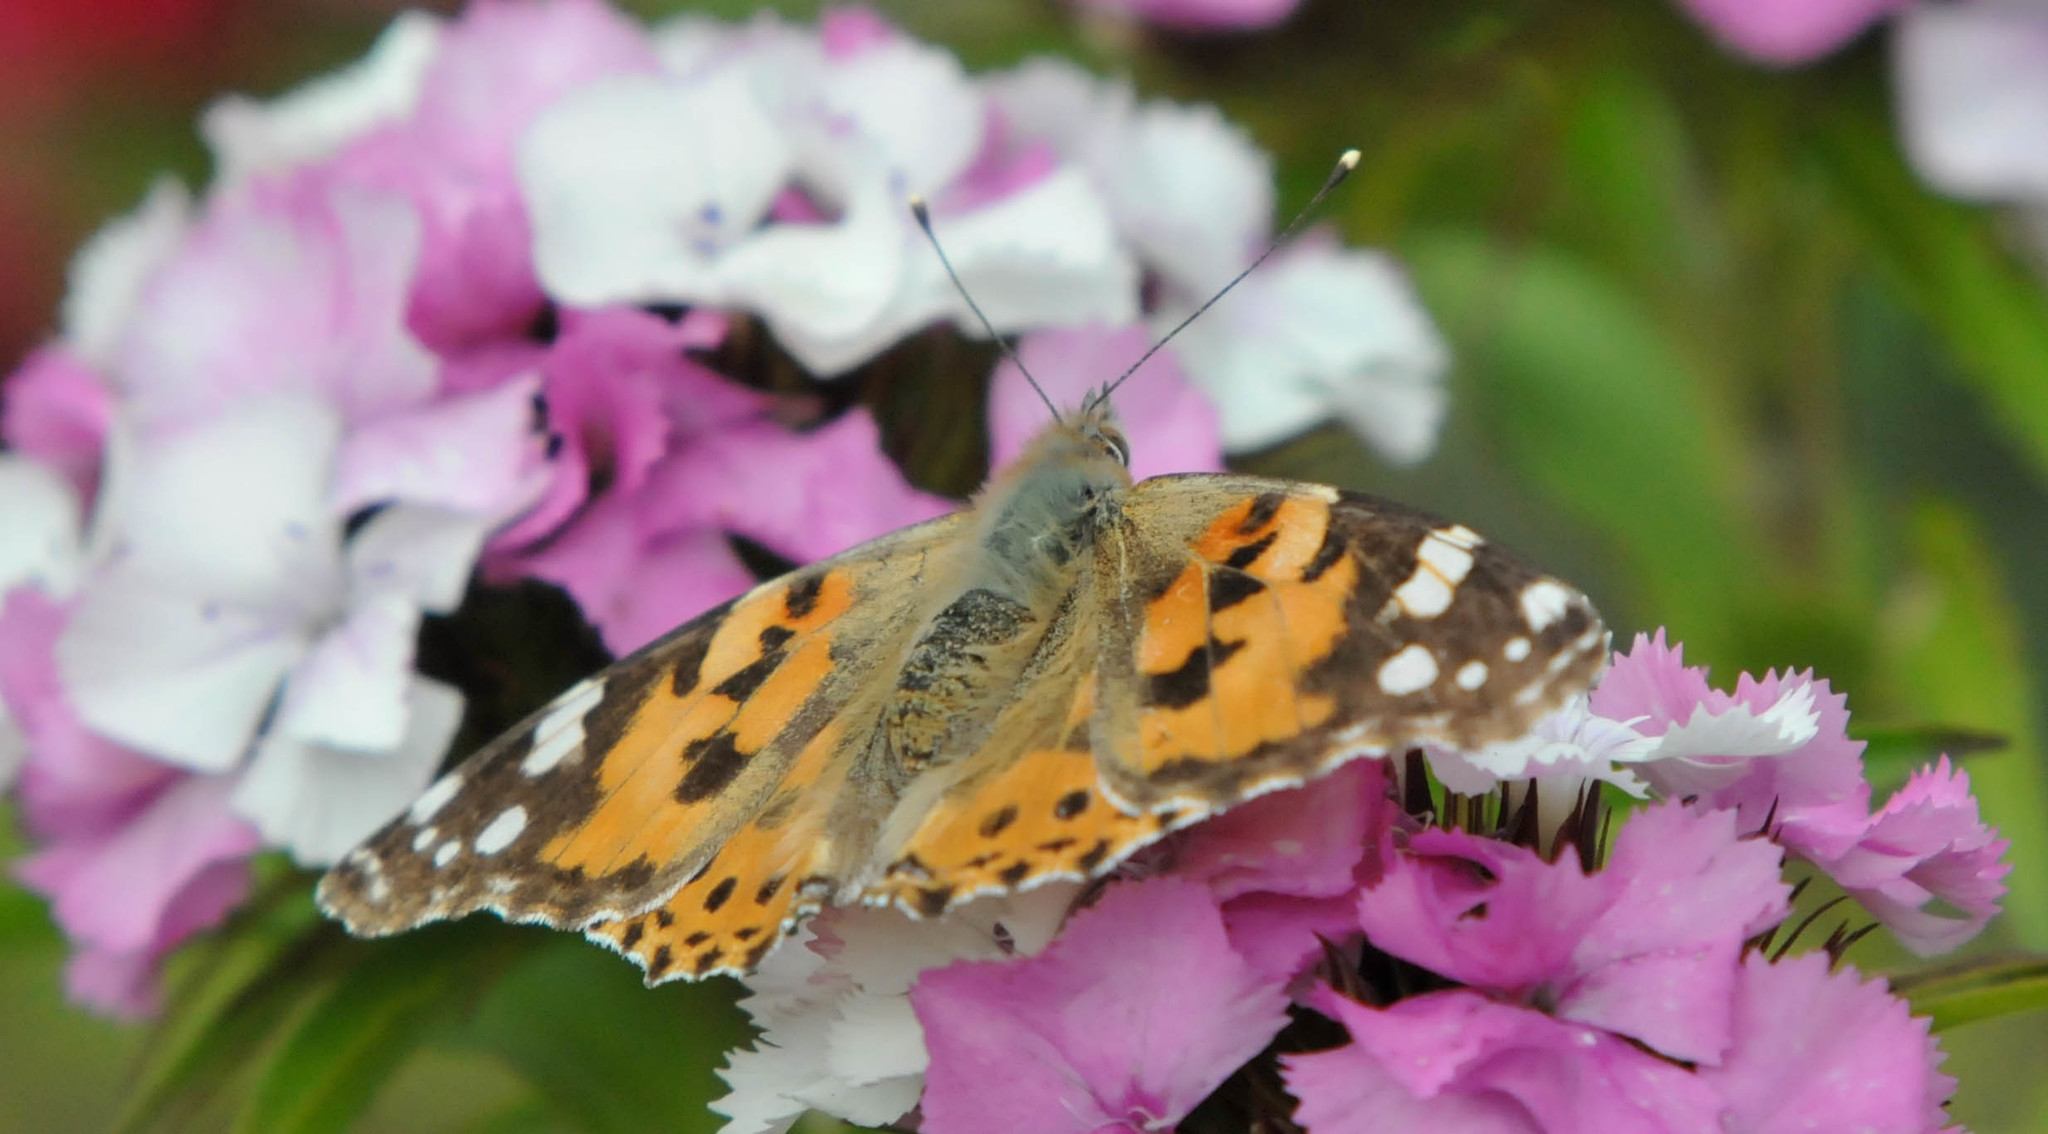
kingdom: Animalia
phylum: Arthropoda
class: Insecta
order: Lepidoptera
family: Nymphalidae
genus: Vanessa
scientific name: Vanessa cardui
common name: Painted lady
